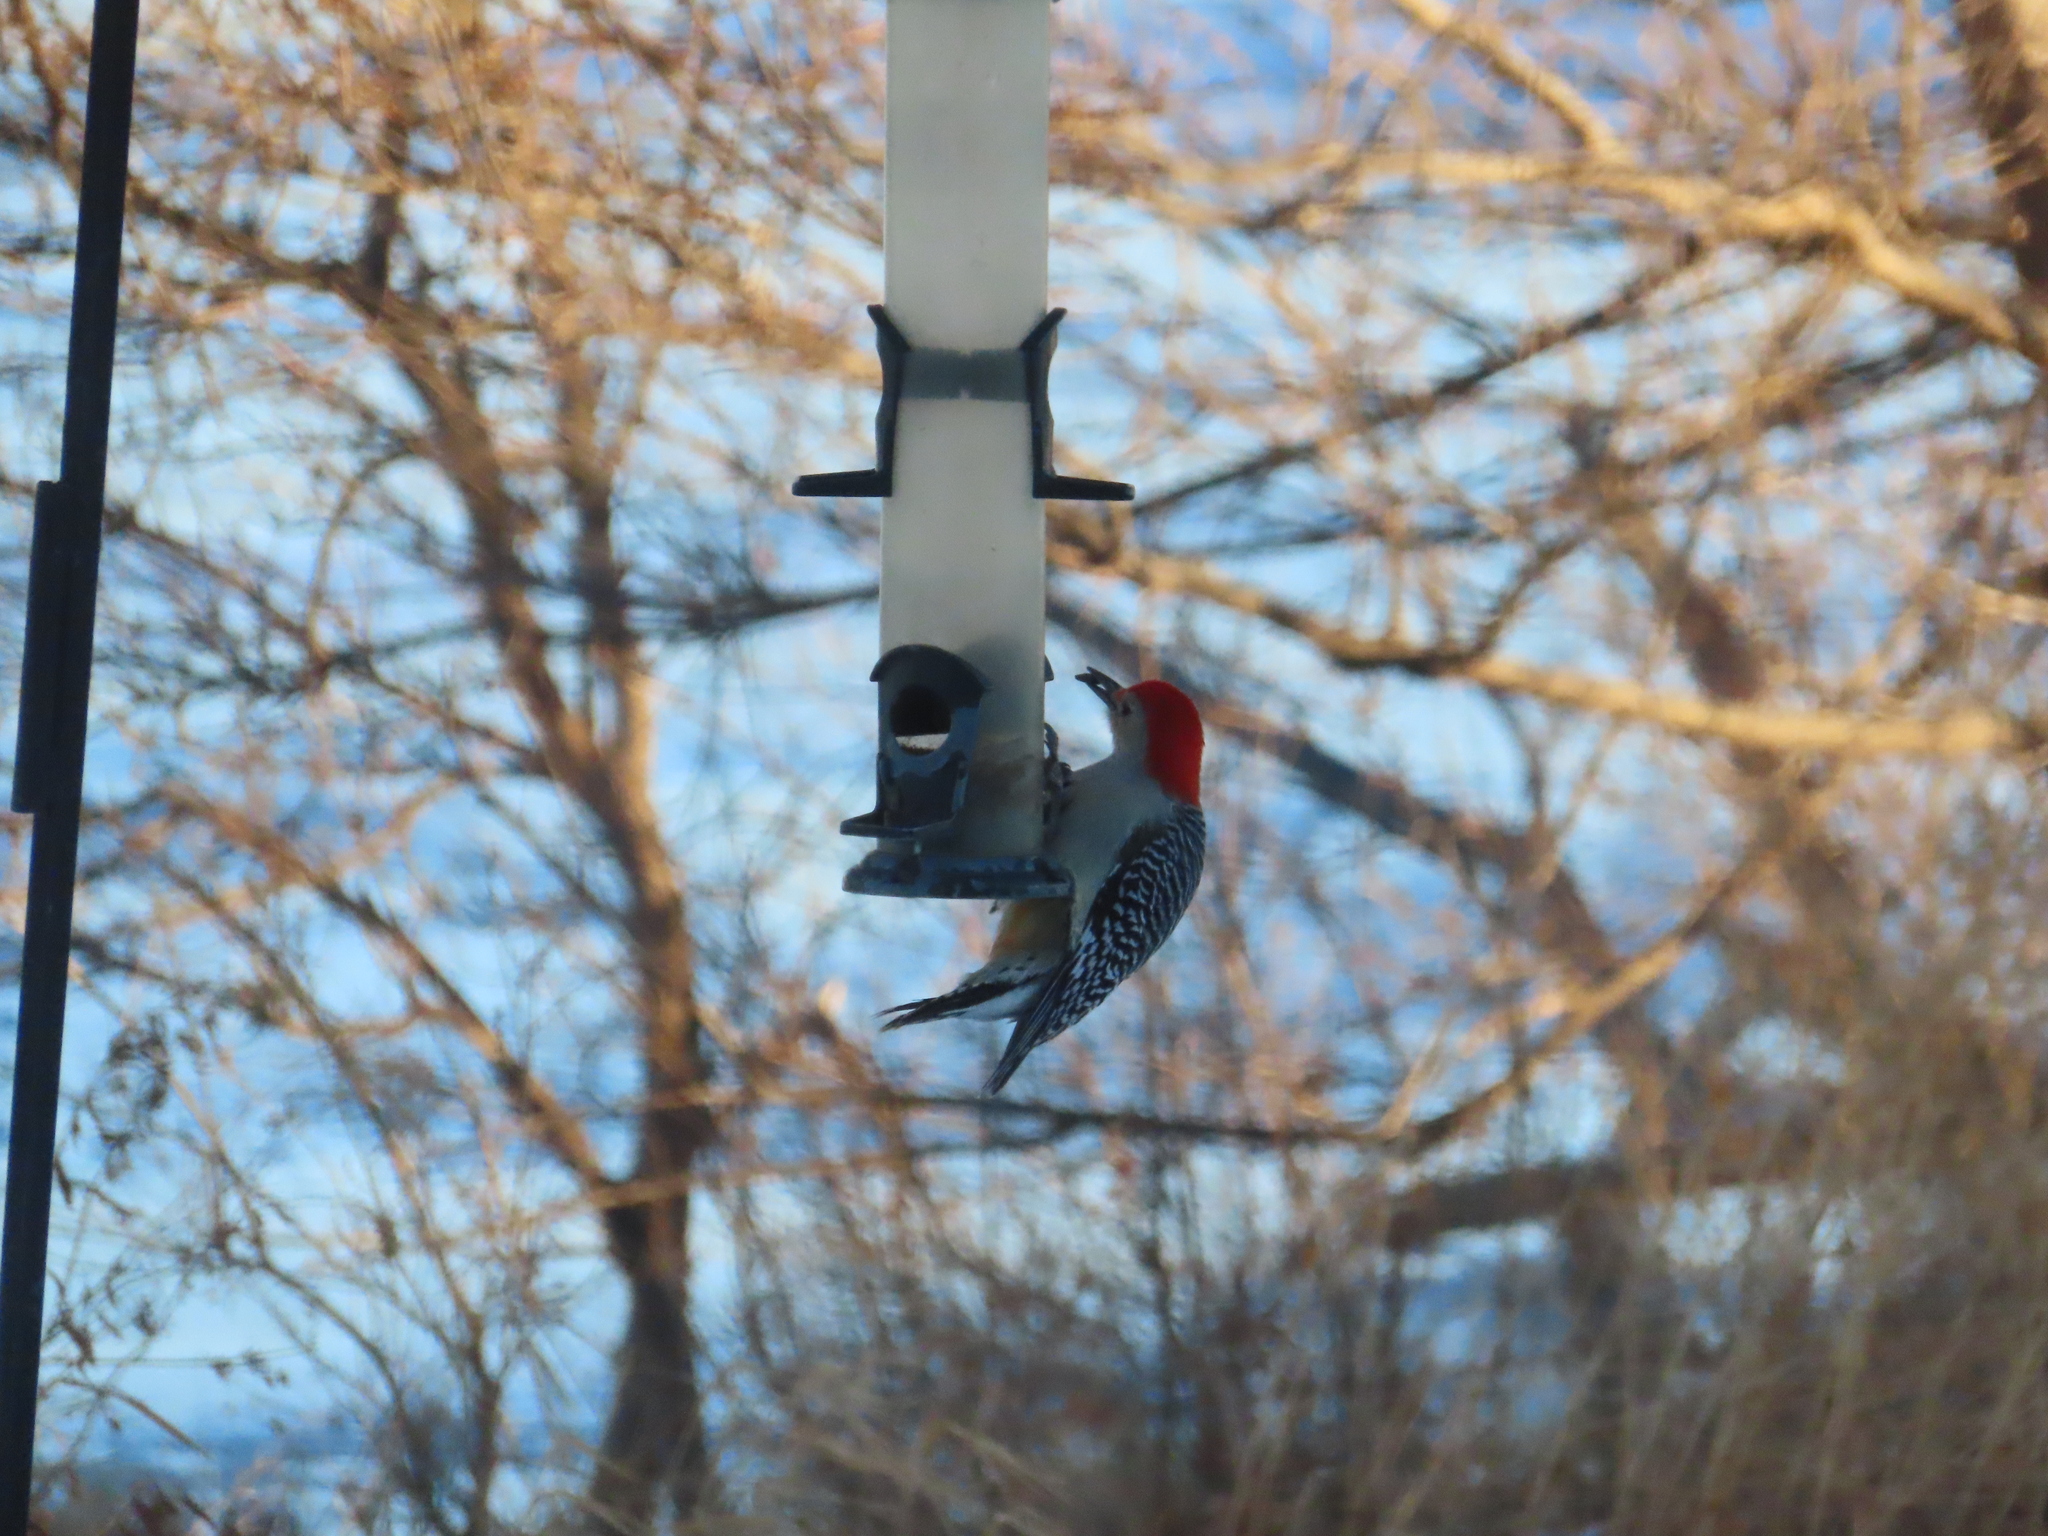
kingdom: Animalia
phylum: Chordata
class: Aves
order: Piciformes
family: Picidae
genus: Melanerpes
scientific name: Melanerpes carolinus
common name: Red-bellied woodpecker
